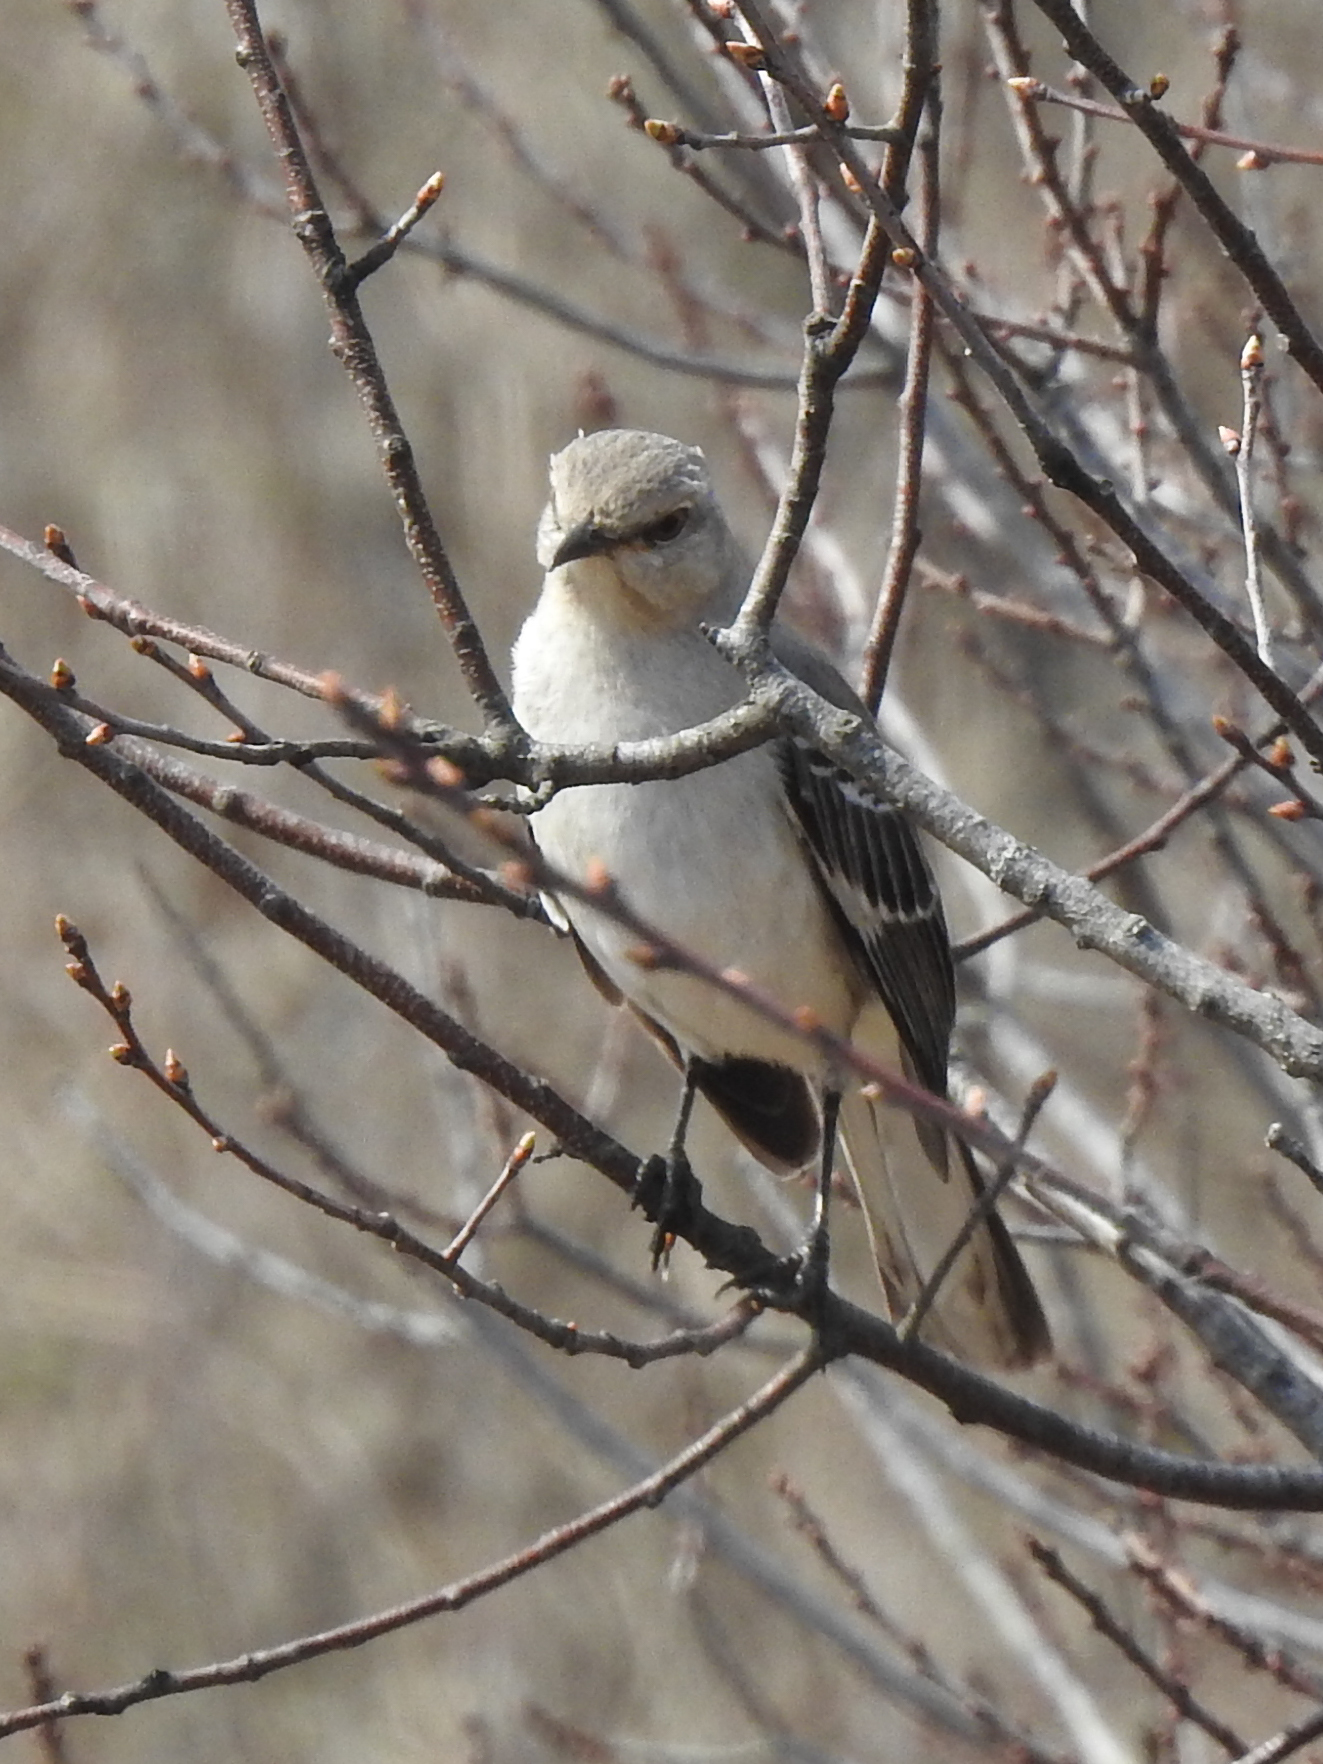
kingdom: Animalia
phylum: Chordata
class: Aves
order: Passeriformes
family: Mimidae
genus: Mimus
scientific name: Mimus polyglottos
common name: Northern mockingbird
